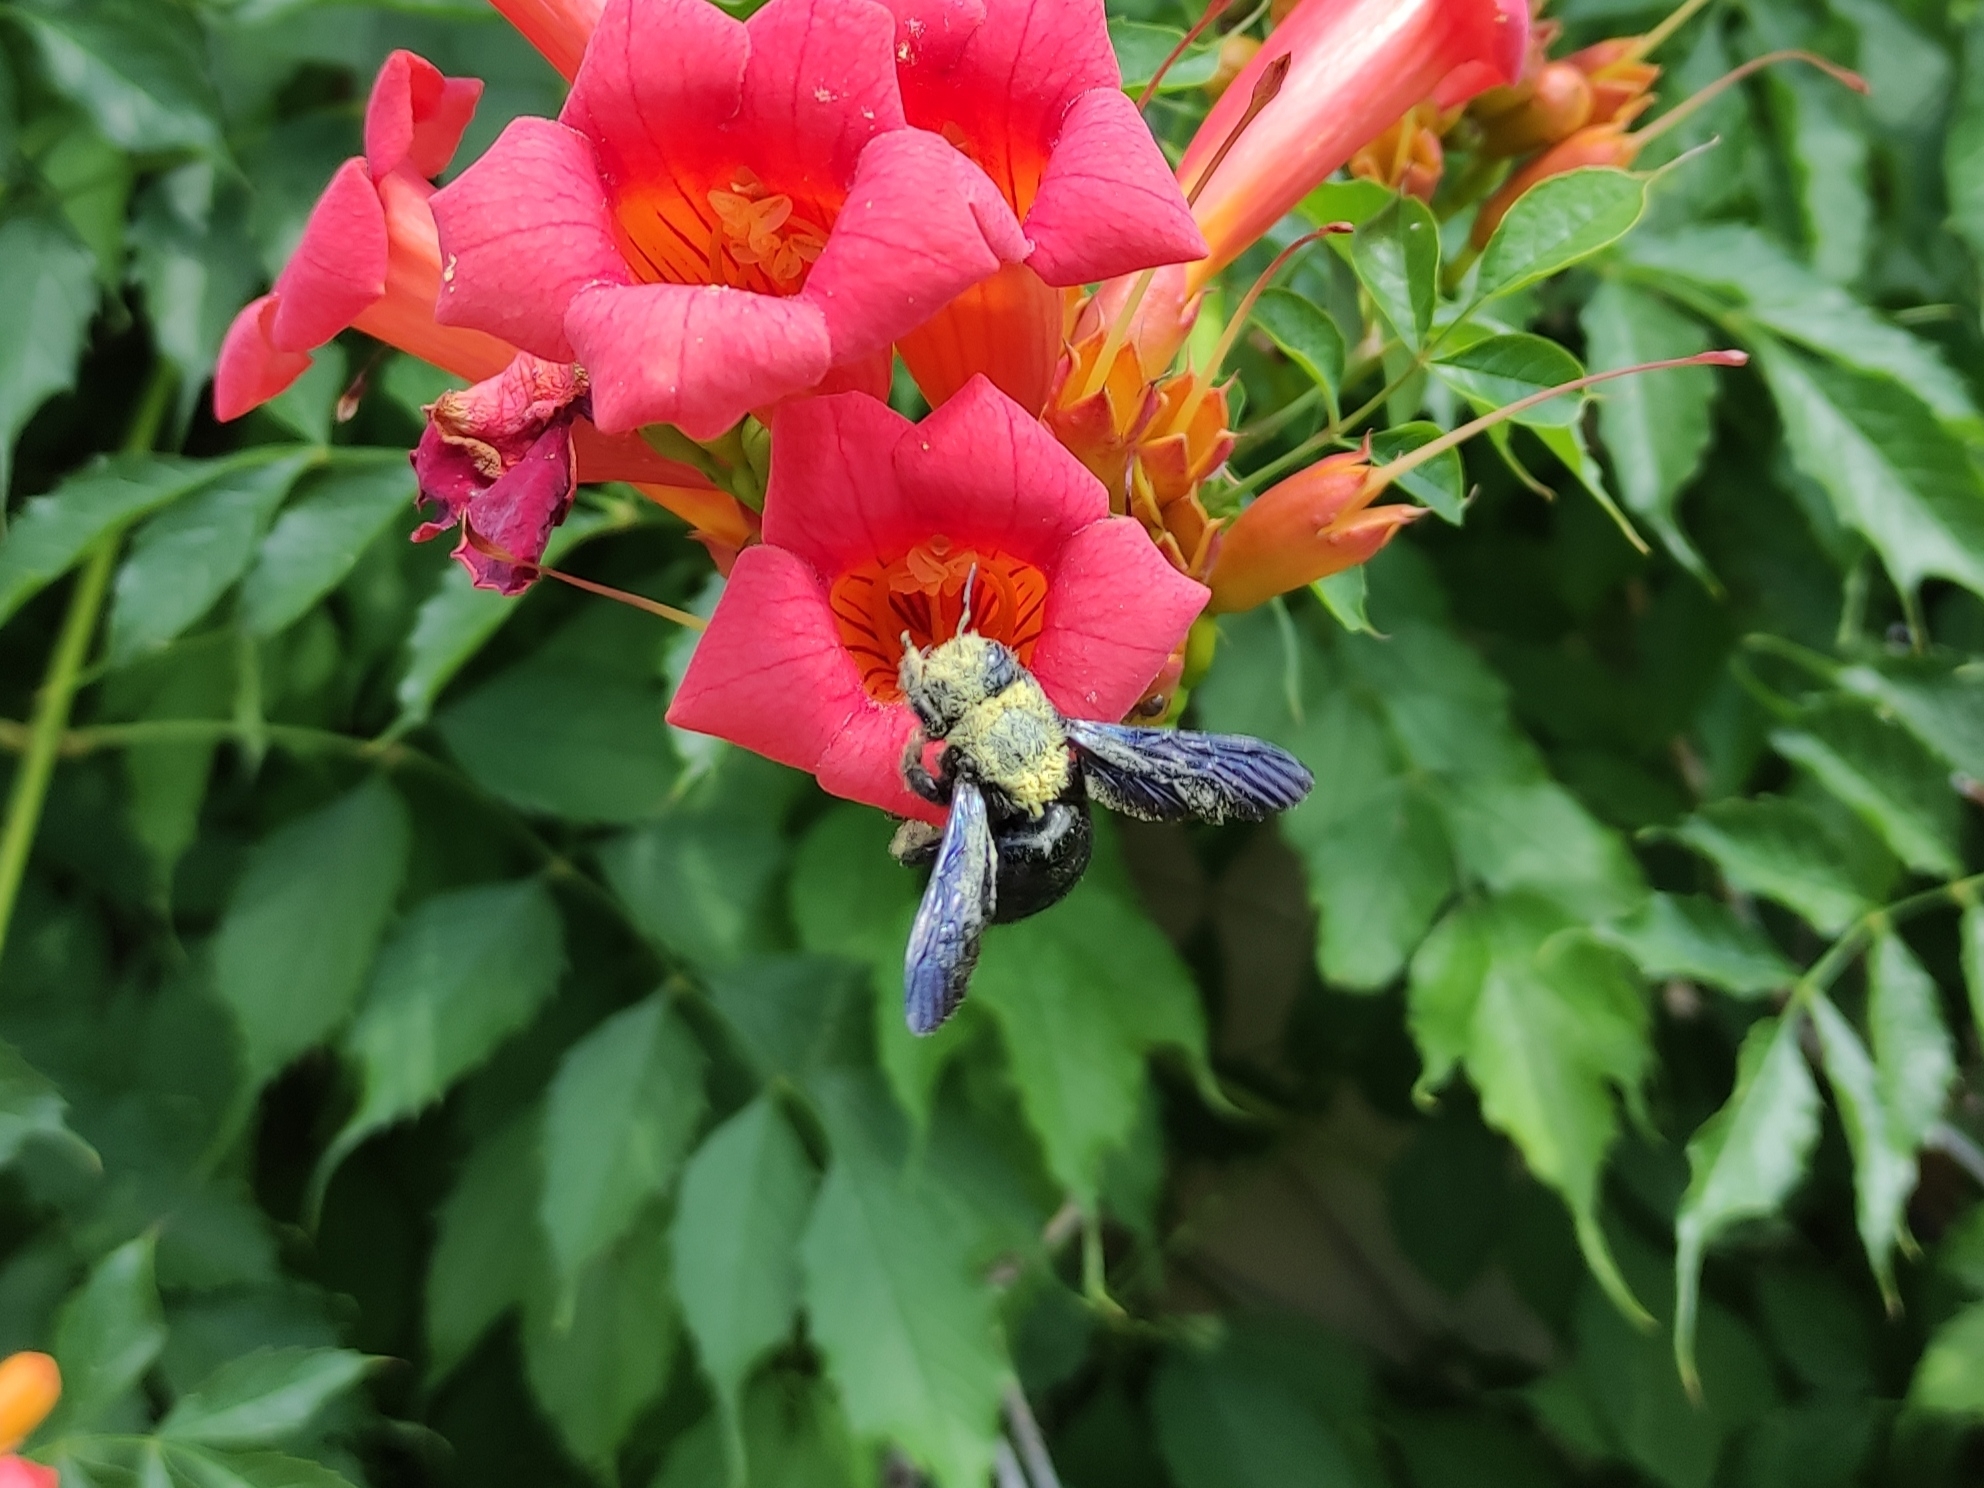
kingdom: Animalia
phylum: Arthropoda
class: Insecta
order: Hymenoptera
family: Apidae
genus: Xylocopa
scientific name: Xylocopa violacea
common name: Violet carpenter bee
